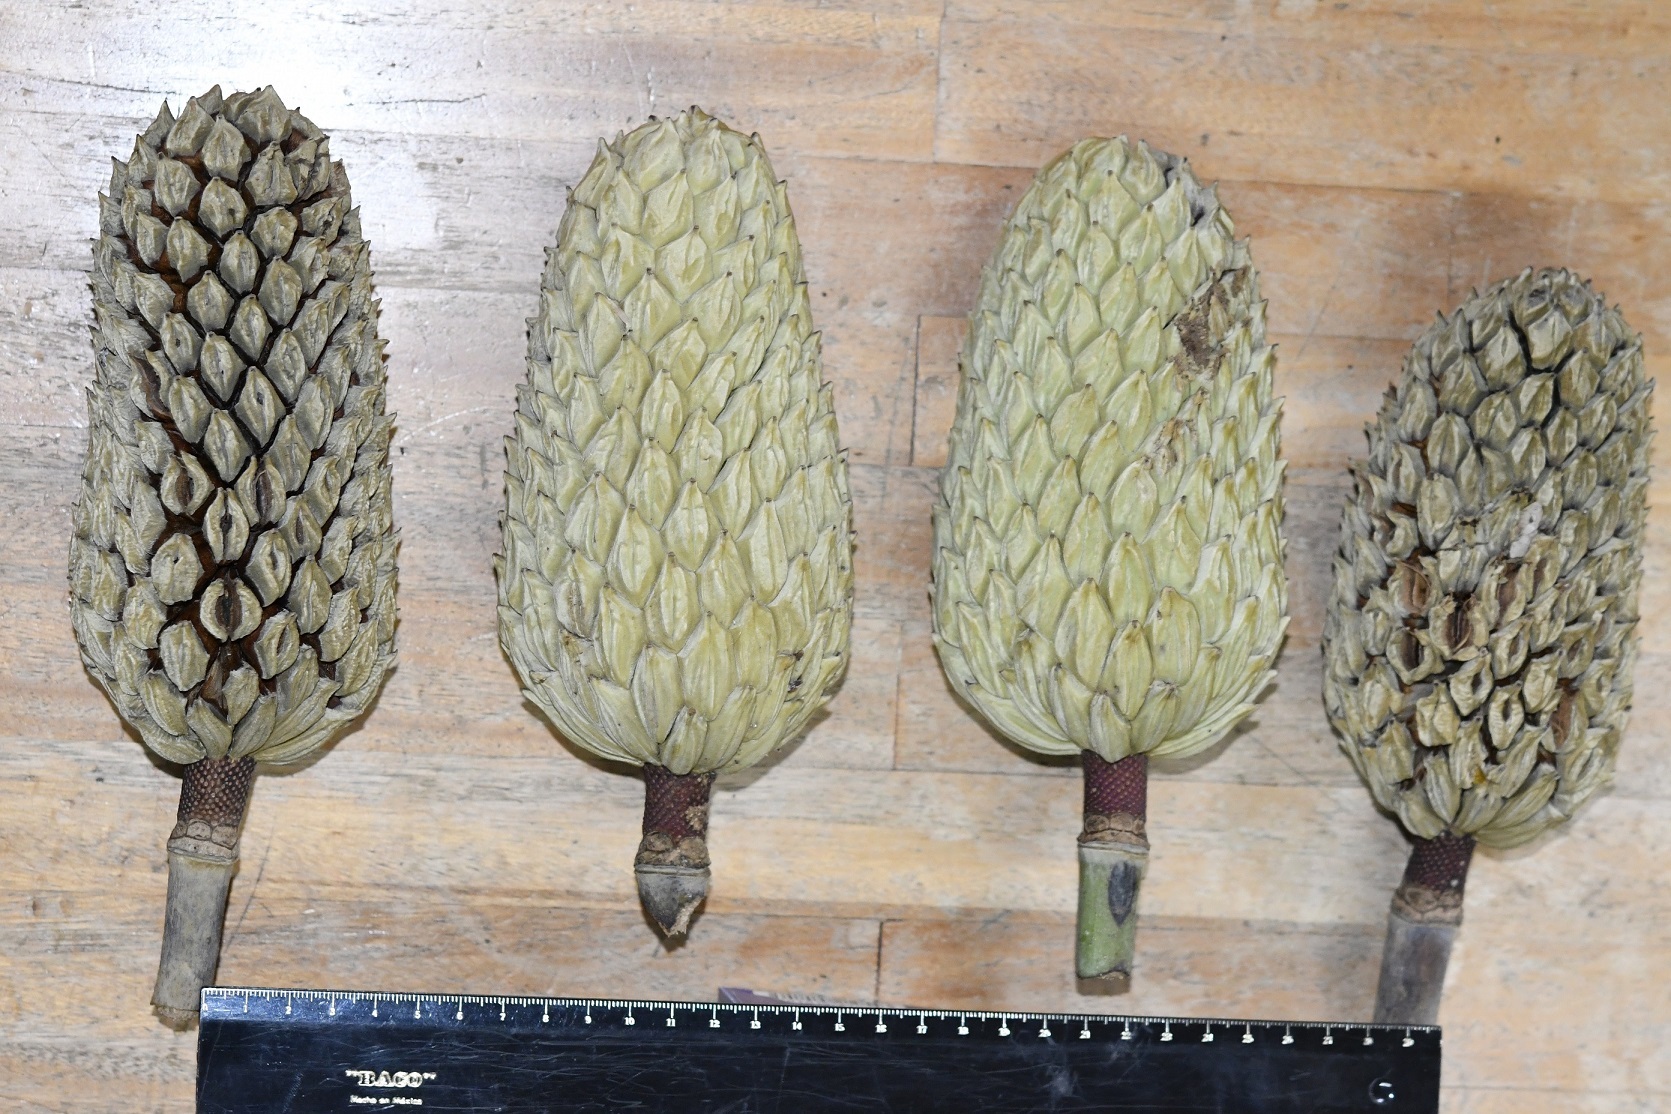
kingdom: Plantae
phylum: Tracheophyta
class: Magnoliopsida
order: Magnoliales
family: Magnoliaceae
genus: Magnolia
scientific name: Magnolia sharpii
